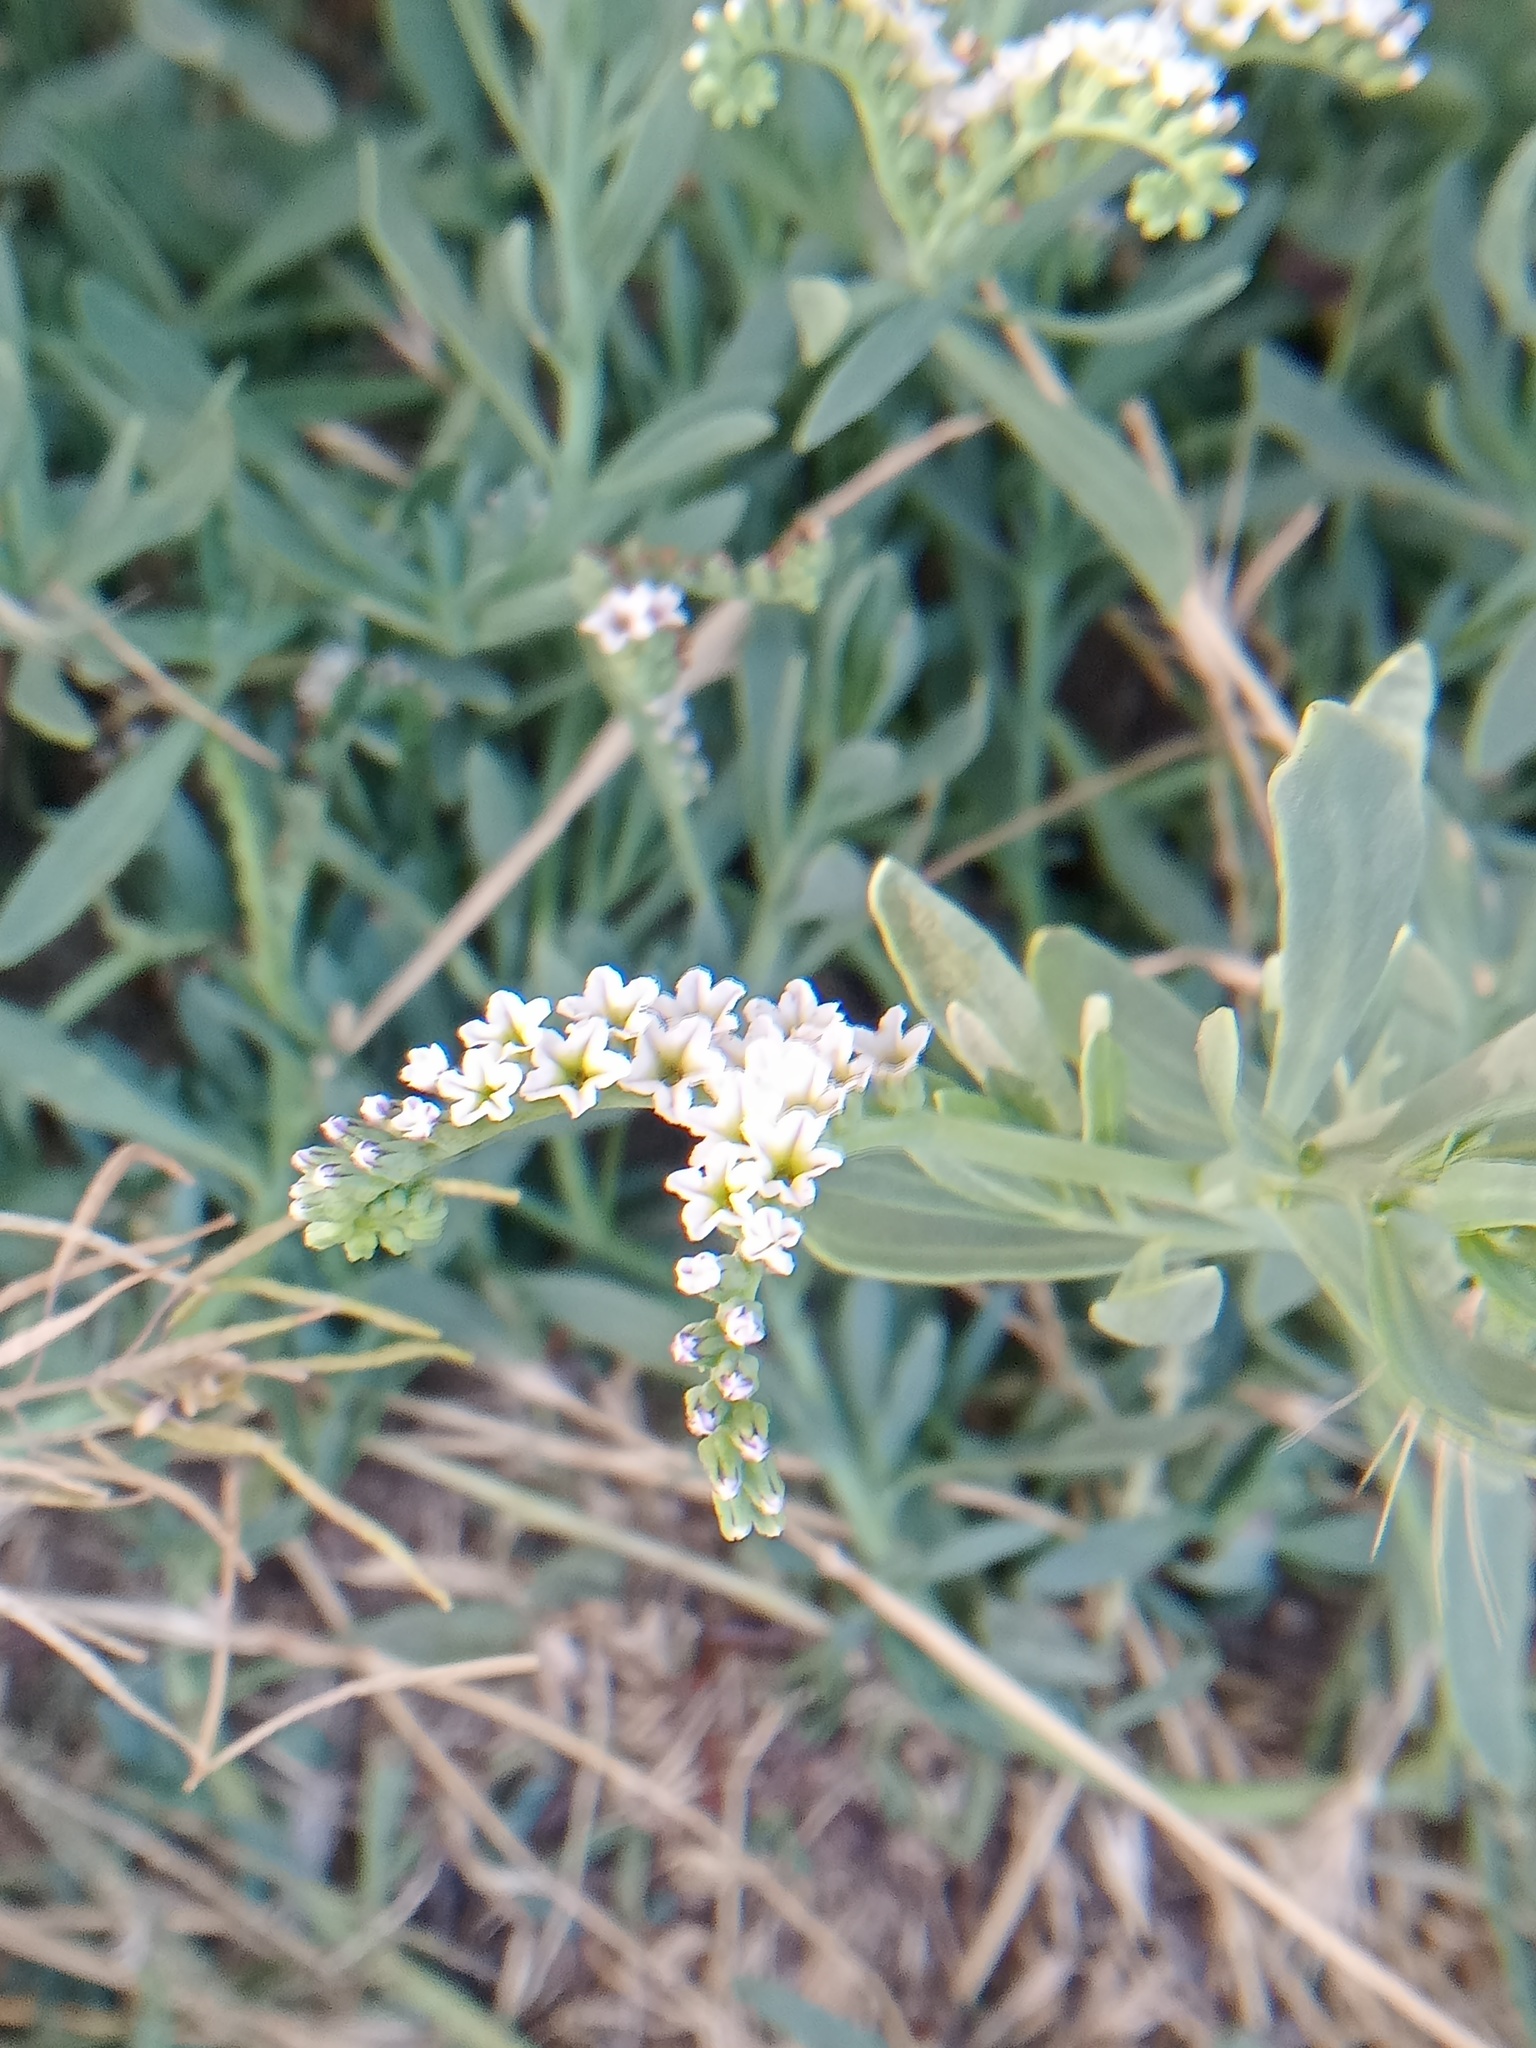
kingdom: Plantae
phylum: Tracheophyta
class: Magnoliopsida
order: Boraginales
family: Heliotropiaceae
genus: Heliotropium
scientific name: Heliotropium curassavicum
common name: Seaside heliotrope
